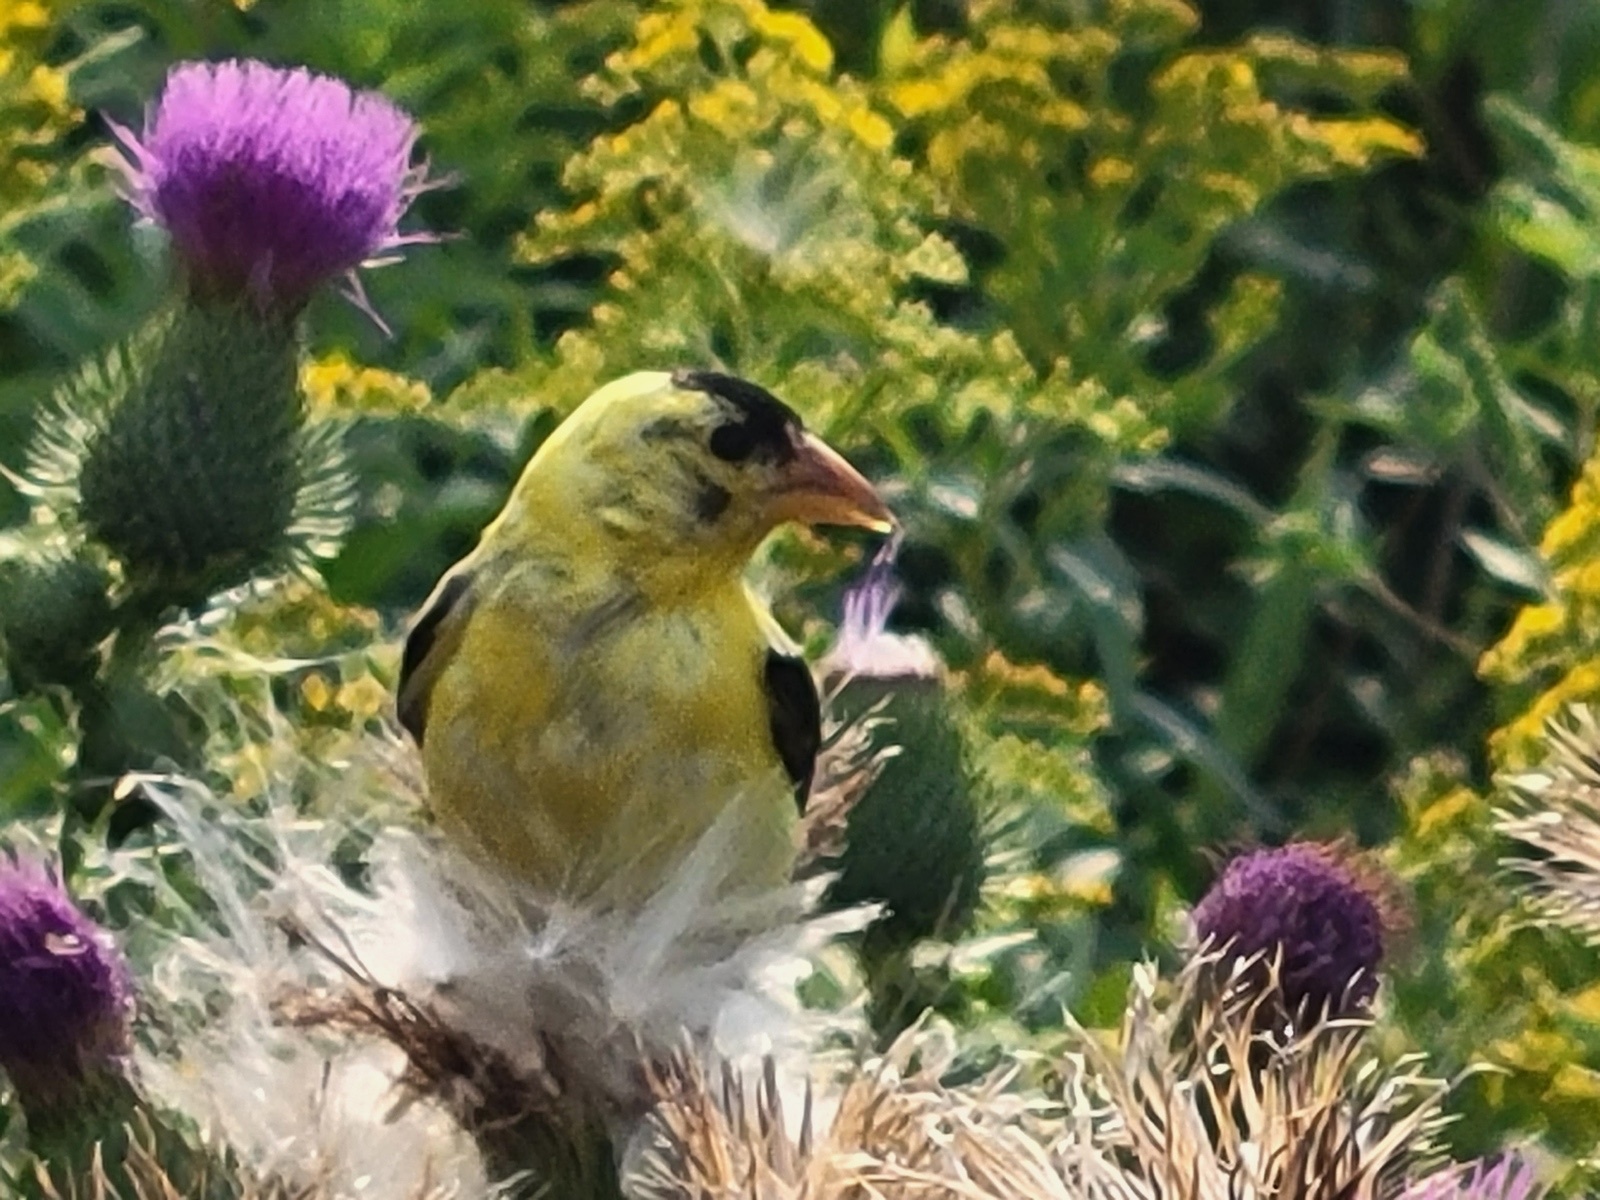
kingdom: Animalia
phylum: Chordata
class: Aves
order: Passeriformes
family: Fringillidae
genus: Spinus
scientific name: Spinus tristis
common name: American goldfinch
